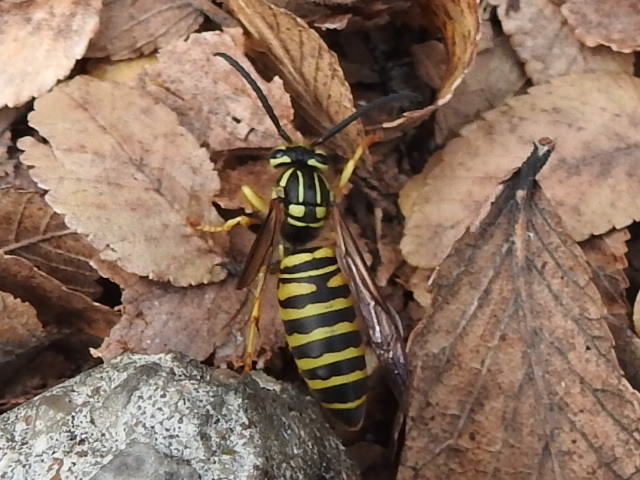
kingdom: Animalia
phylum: Arthropoda
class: Insecta
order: Hymenoptera
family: Vespidae
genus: Vespula
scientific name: Vespula squamosa
